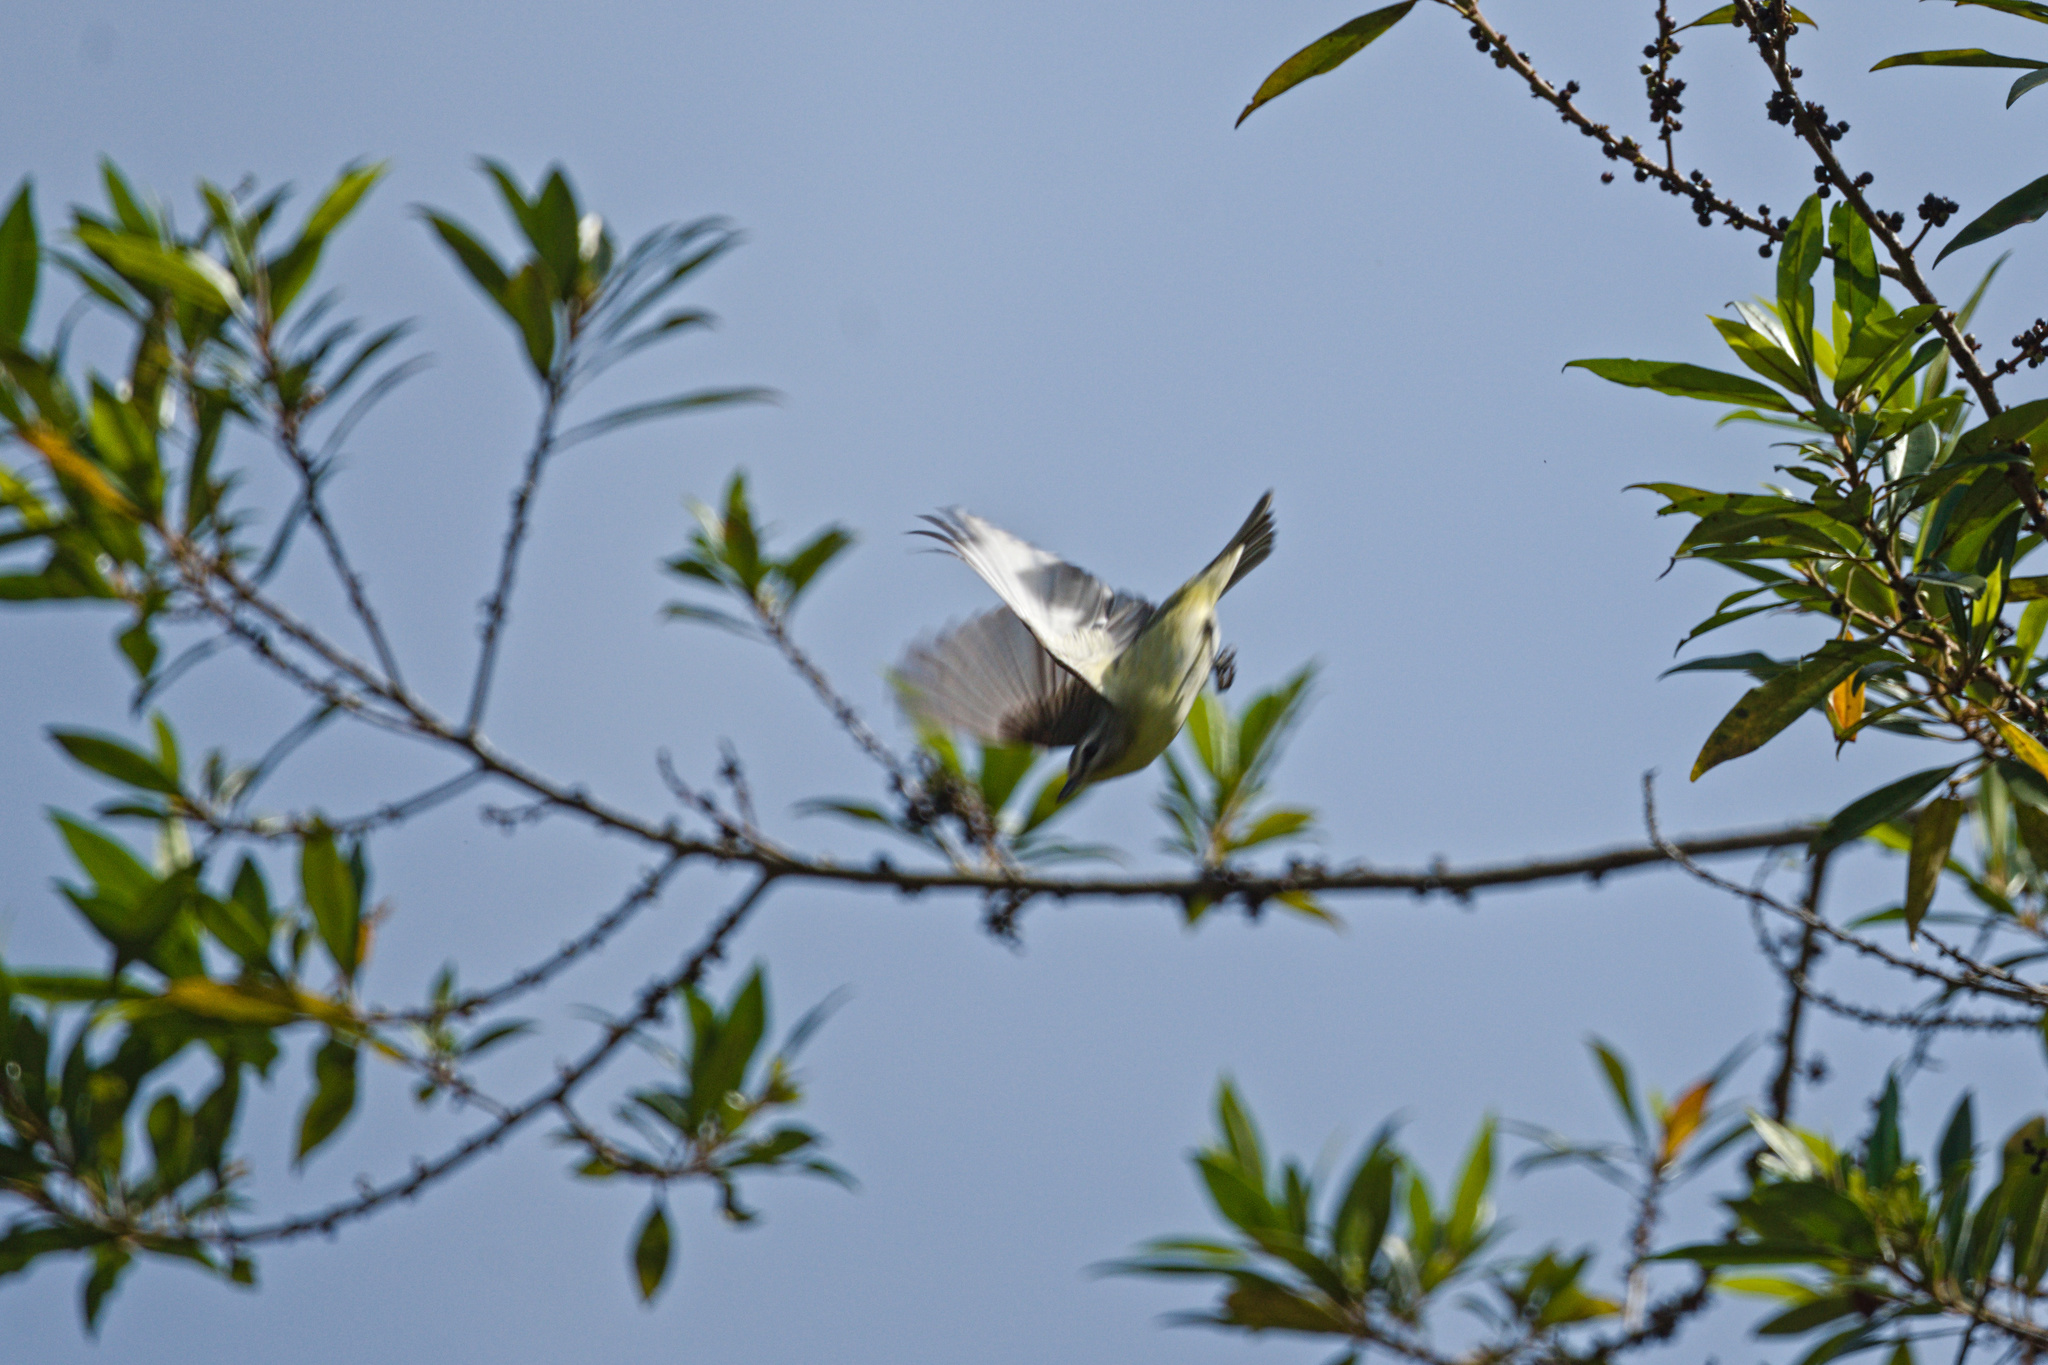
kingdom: Animalia
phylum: Chordata
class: Aves
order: Passeriformes
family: Vireonidae
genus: Vireo
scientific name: Vireo philadelphicus
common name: Philadelphia vireo
